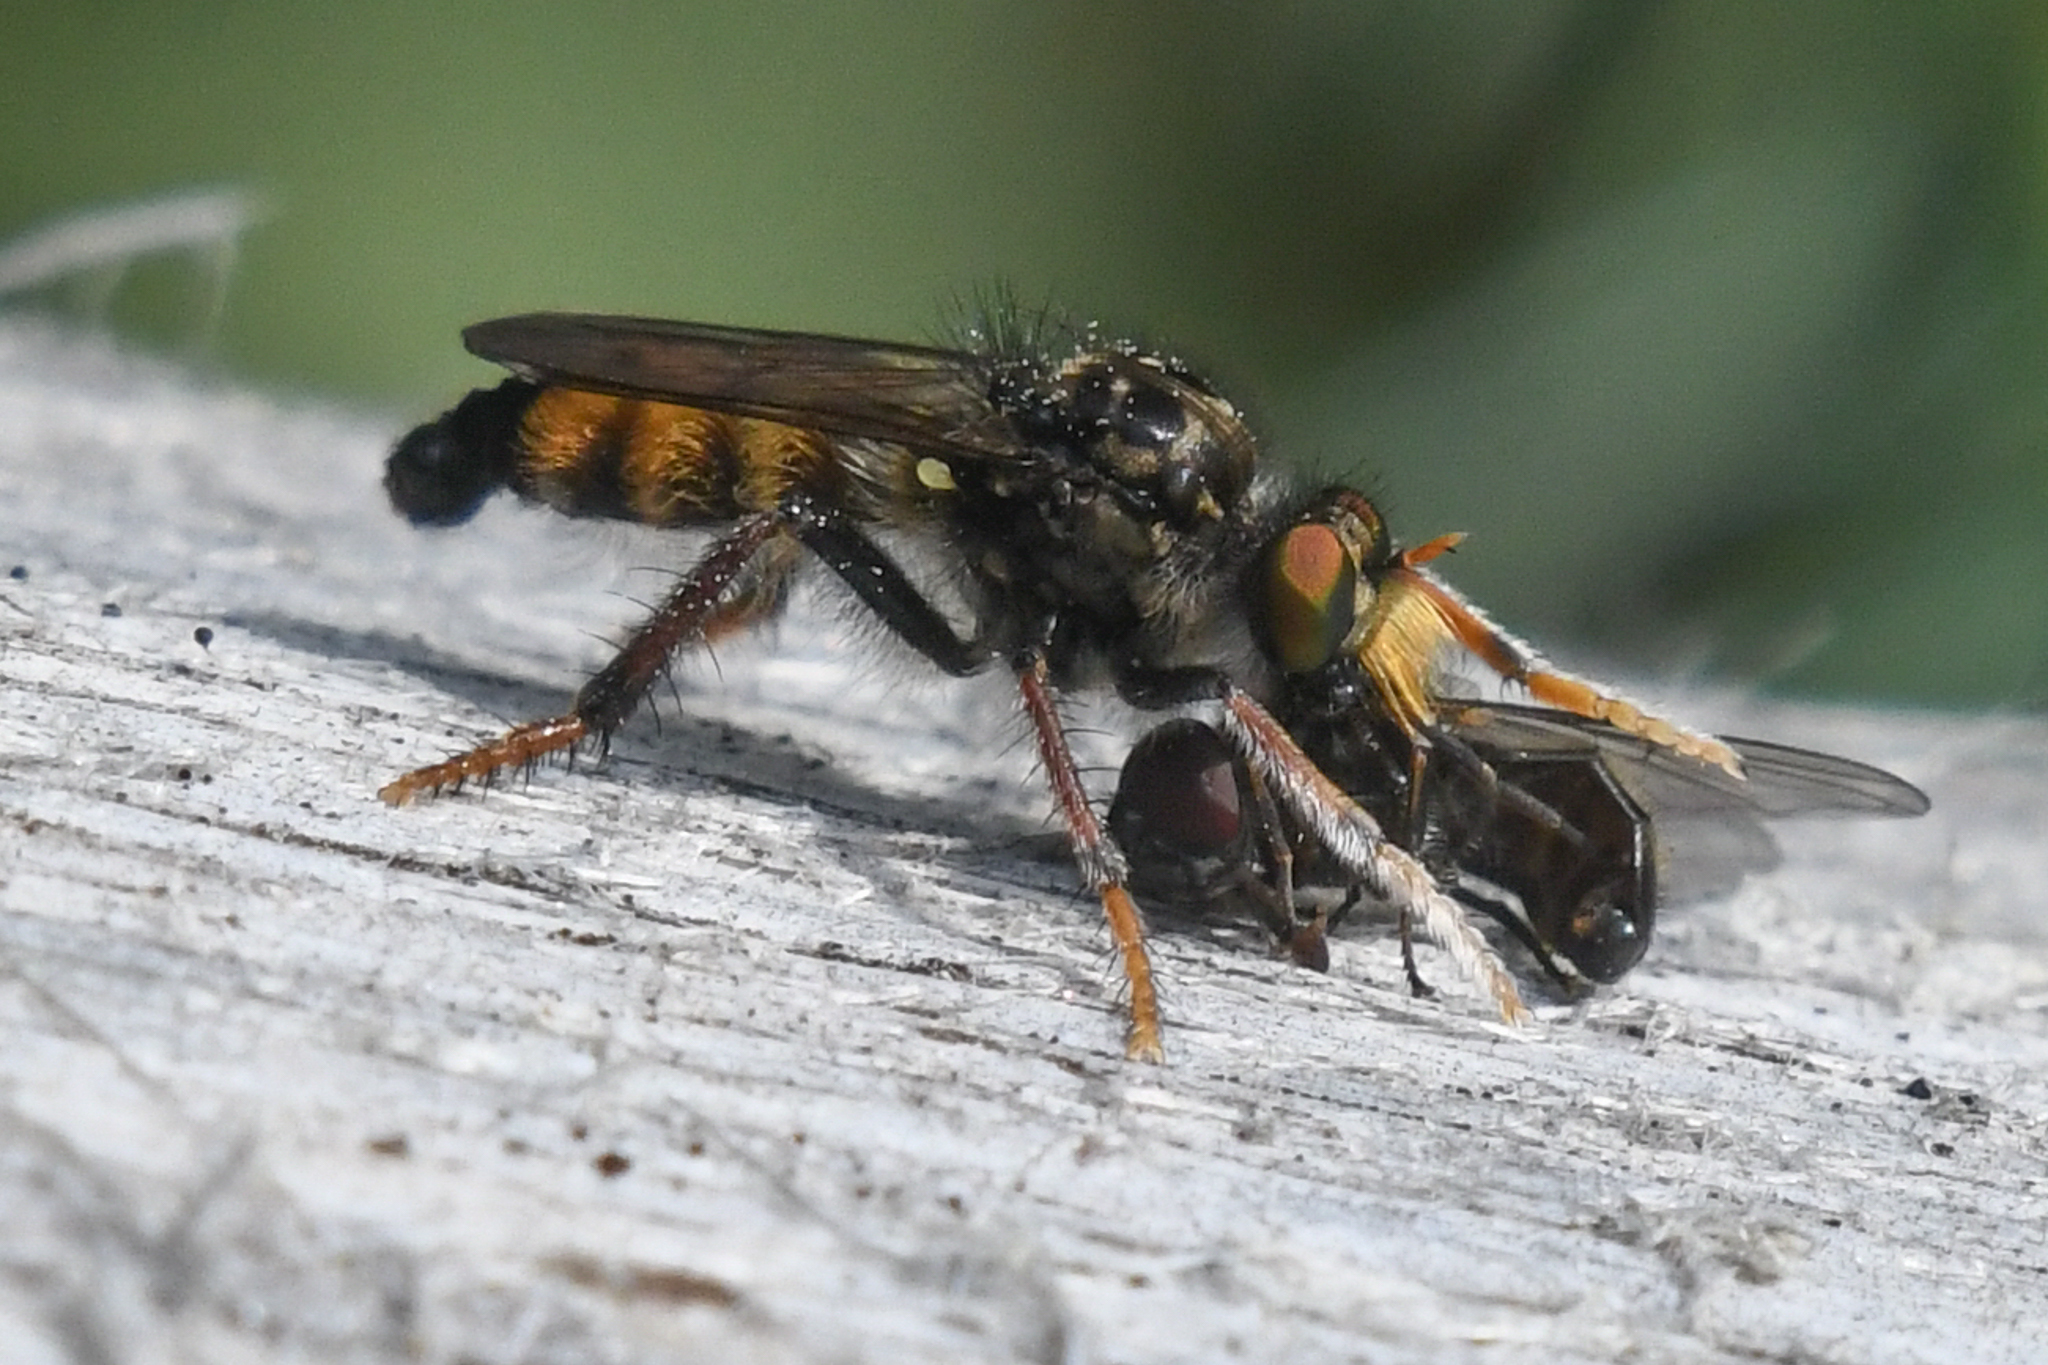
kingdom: Animalia
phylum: Arthropoda
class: Insecta
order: Diptera
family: Asilidae
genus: Cyrtopogon
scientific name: Cyrtopogon auratus
